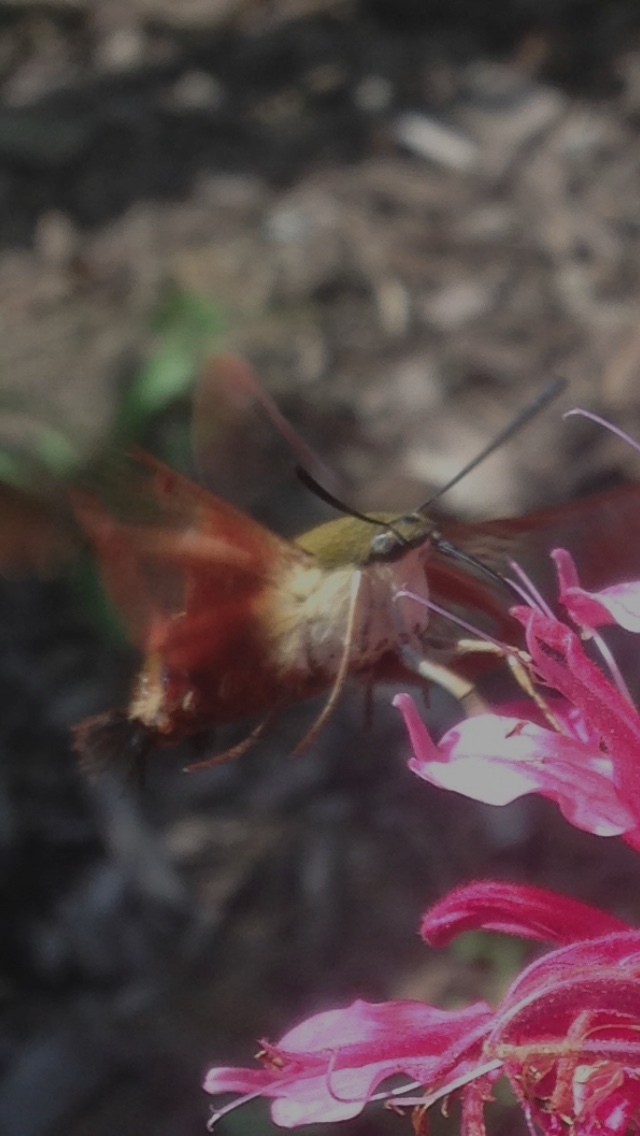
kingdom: Animalia
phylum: Arthropoda
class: Insecta
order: Lepidoptera
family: Sphingidae
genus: Hemaris
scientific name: Hemaris thysbe
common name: Common clear-wing
